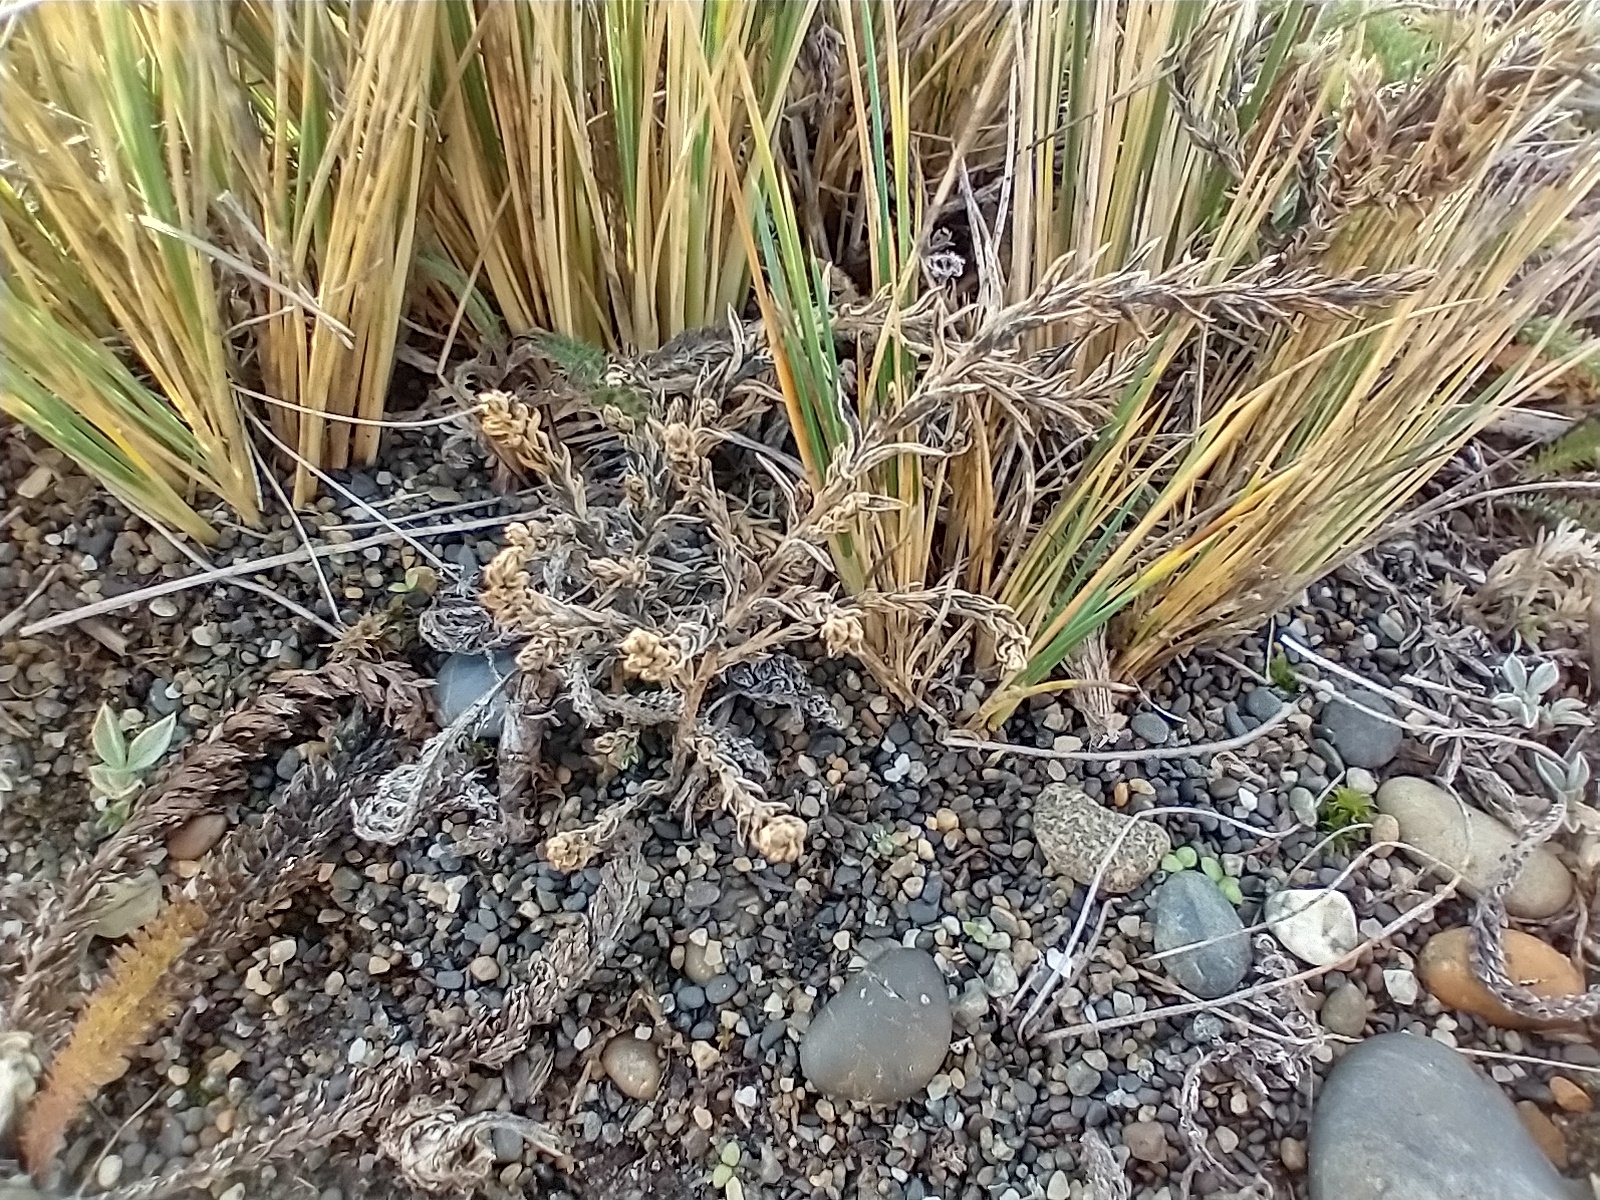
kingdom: Plantae
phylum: Tracheophyta
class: Magnoliopsida
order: Santalales
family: Schoepfiaceae
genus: Arjona
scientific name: Arjona patagonica
